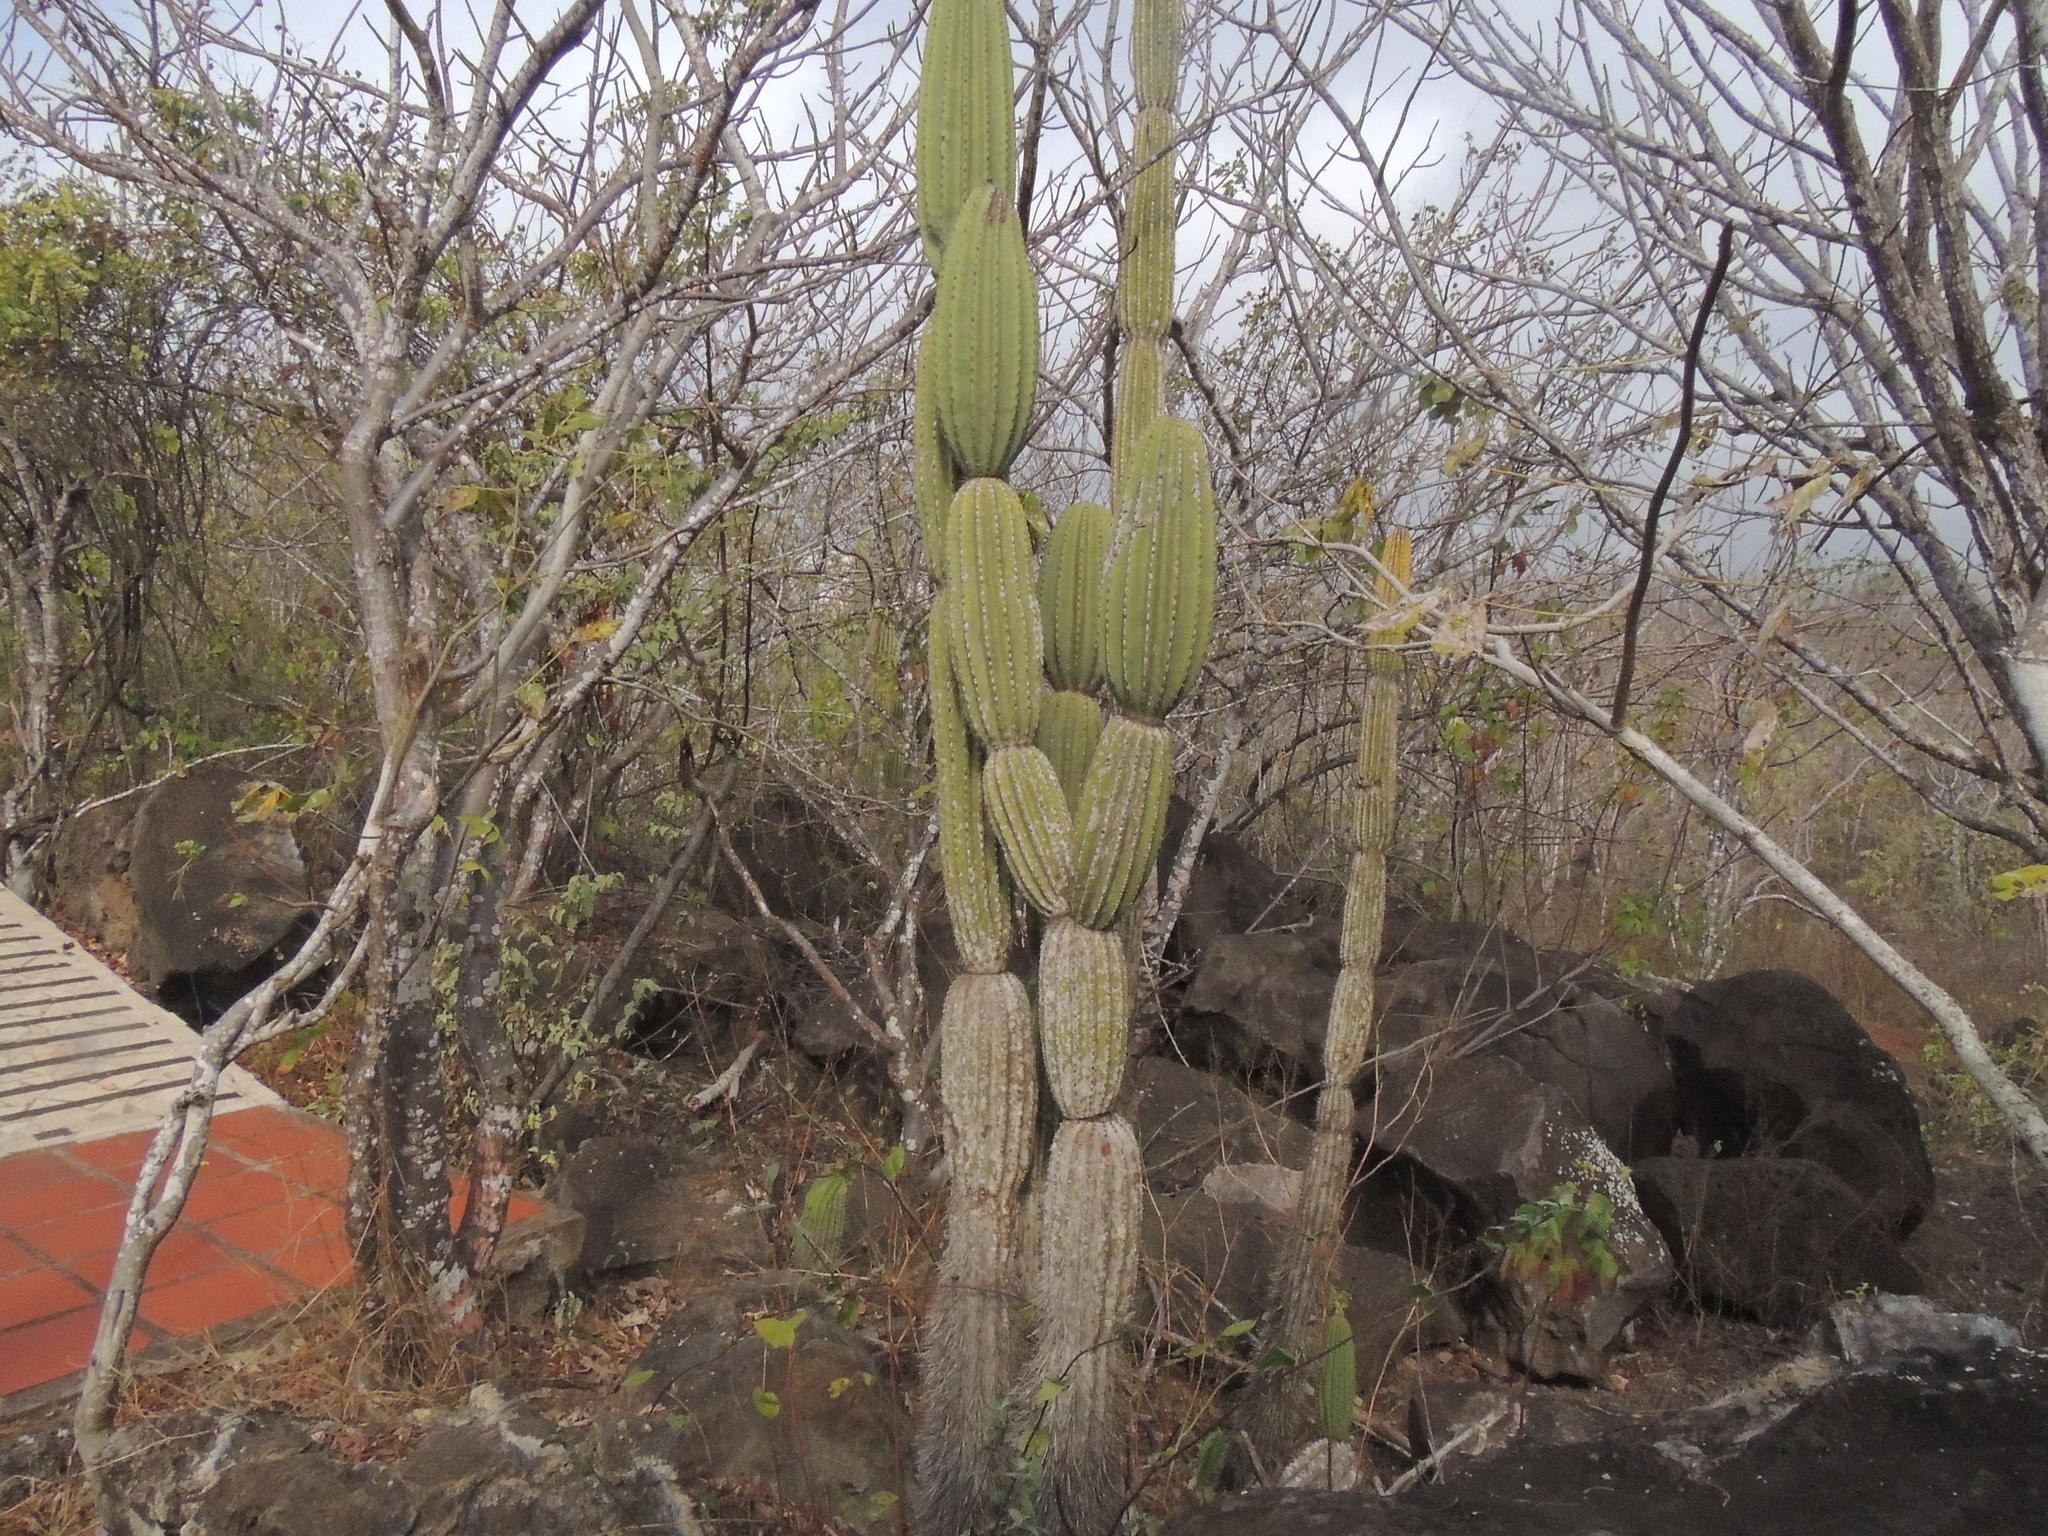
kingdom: Plantae
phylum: Tracheophyta
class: Magnoliopsida
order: Caryophyllales
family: Cactaceae
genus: Jasminocereus
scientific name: Jasminocereus thouarsii
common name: Candelabra cactus
